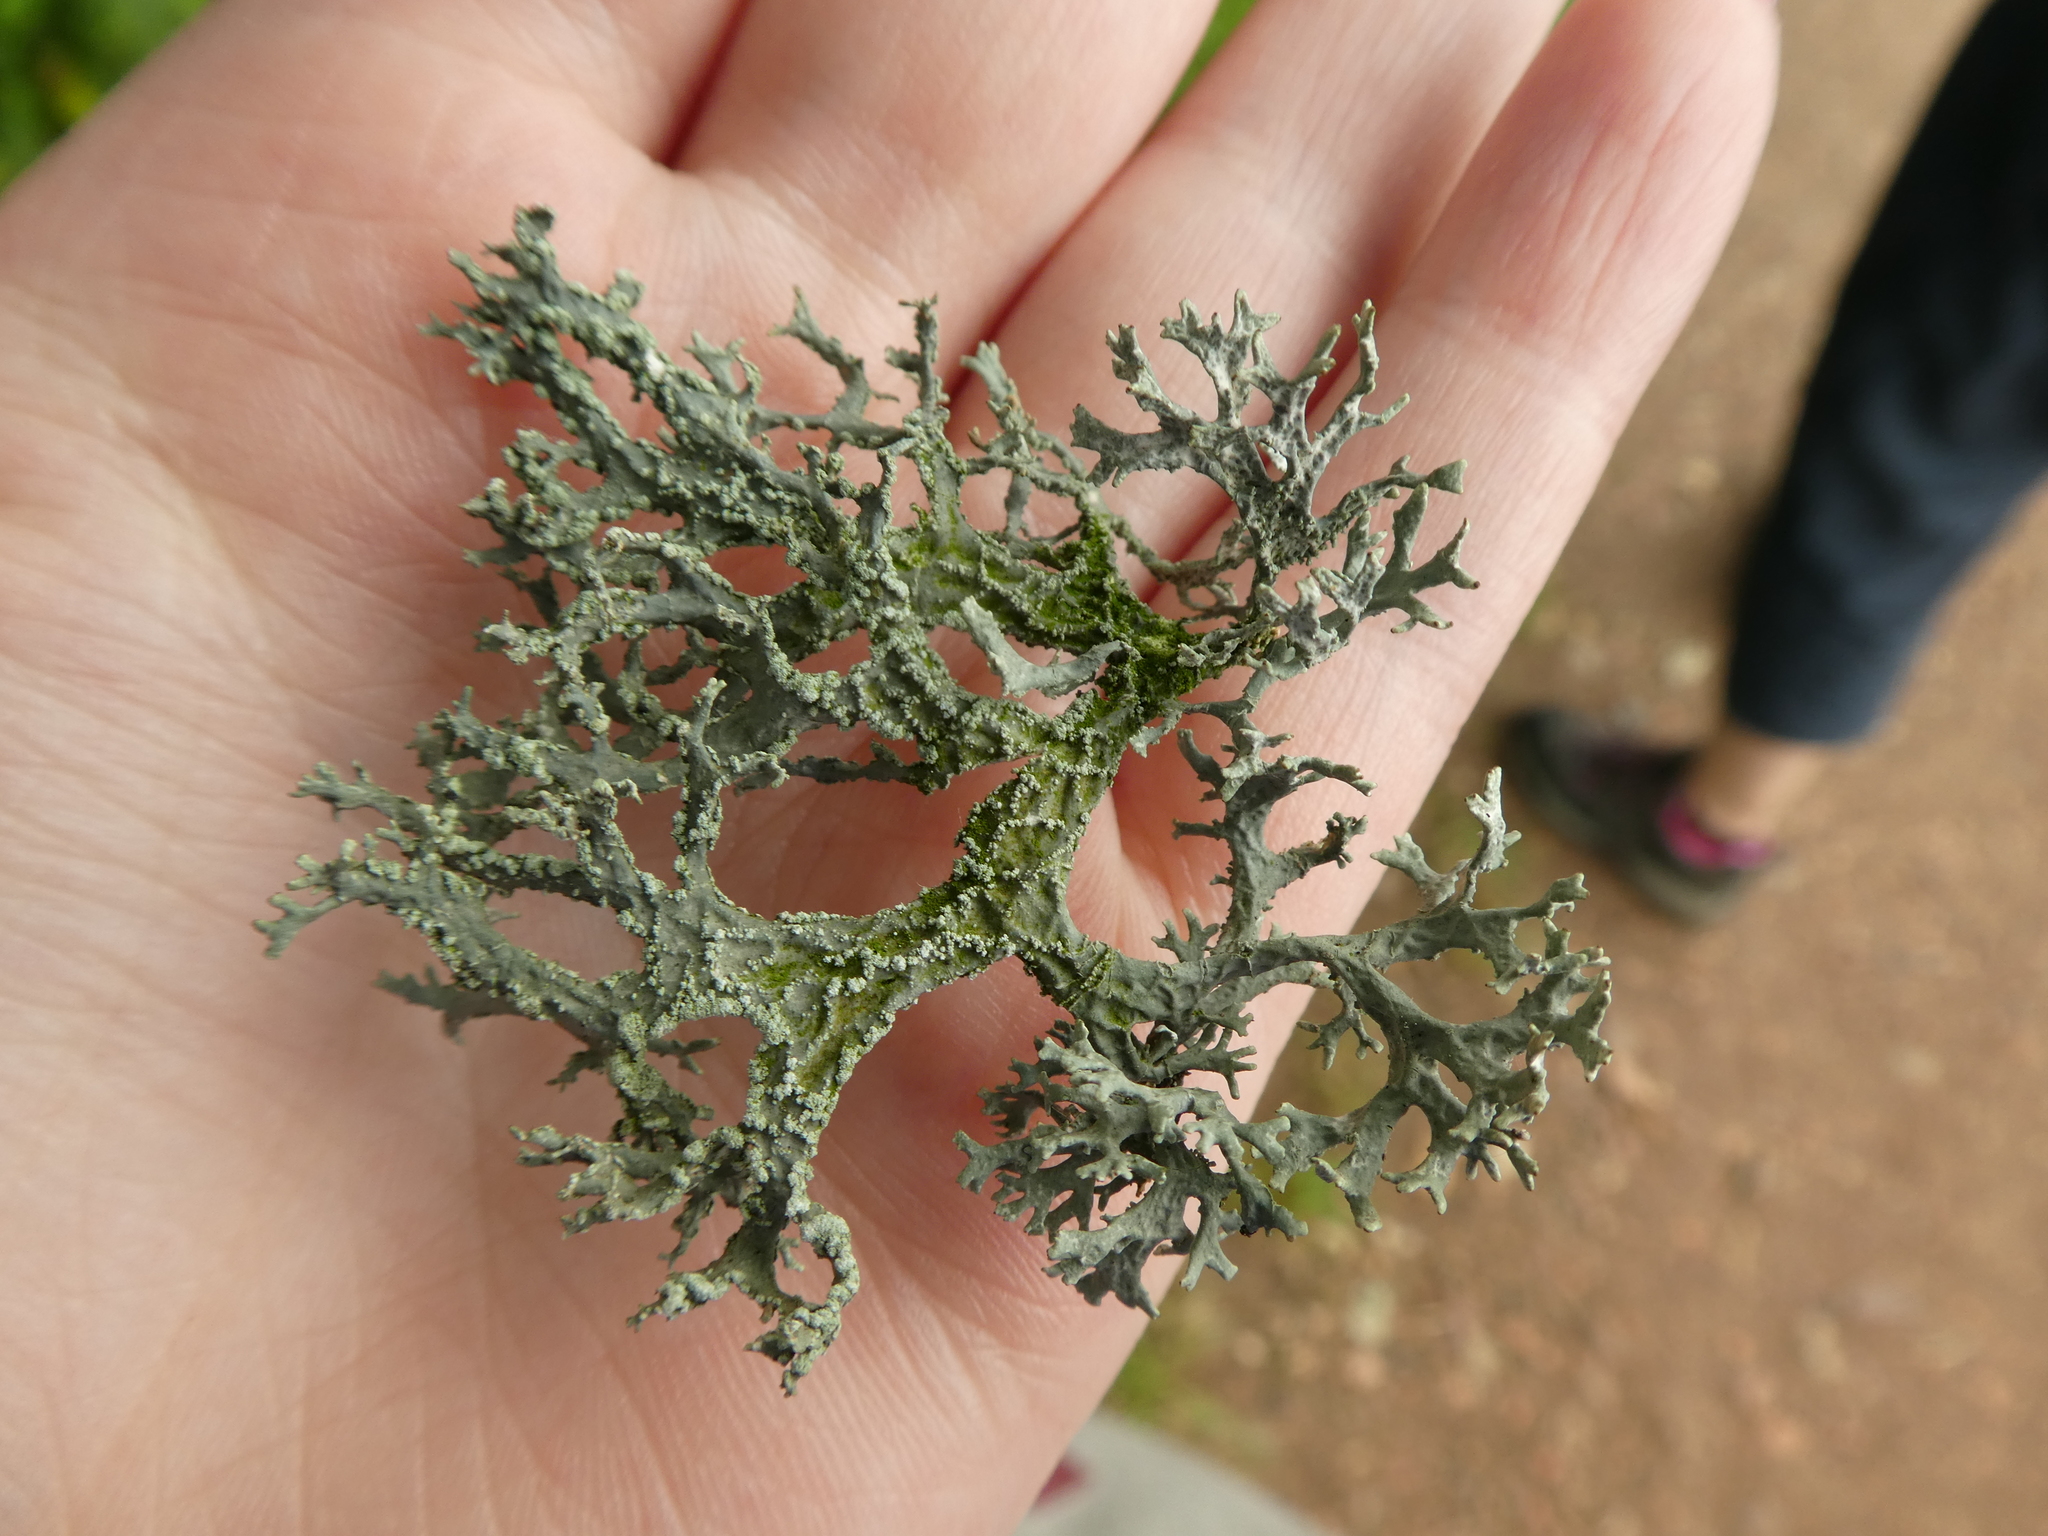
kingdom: Fungi
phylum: Ascomycota
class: Lecanoromycetes
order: Lecanorales
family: Parmeliaceae
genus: Evernia
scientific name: Evernia prunastri
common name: Oak moss
